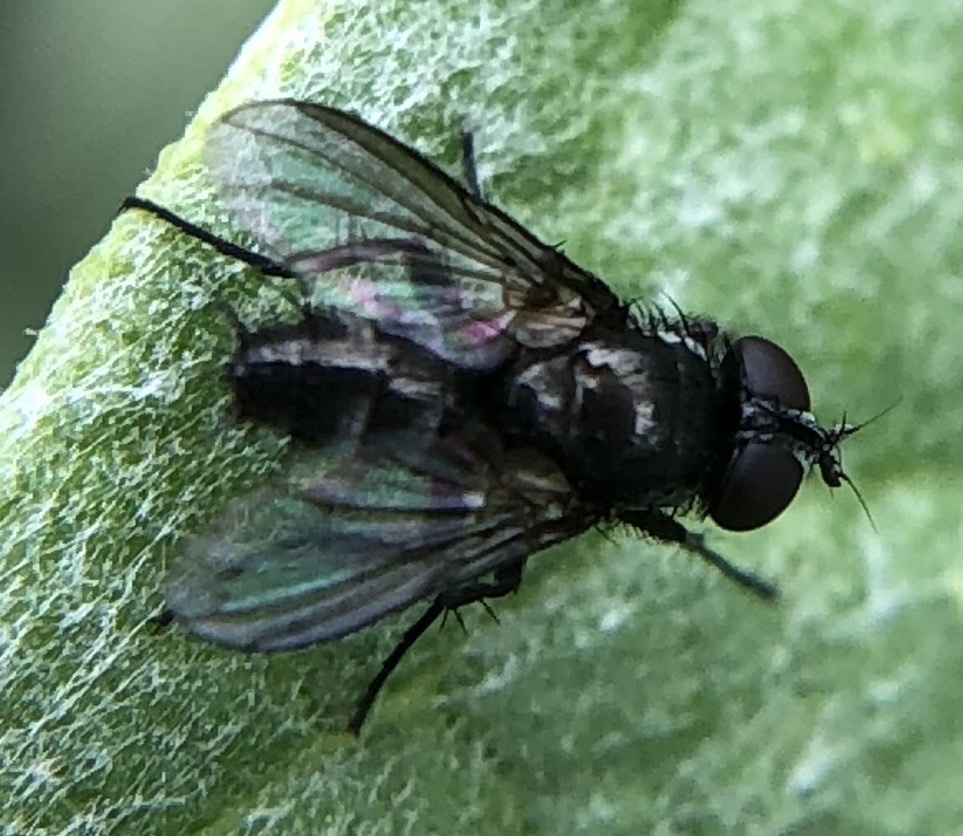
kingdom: Animalia
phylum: Arthropoda
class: Insecta
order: Diptera
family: Calliphoridae
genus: Rhinophora
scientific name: Rhinophora lepida
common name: Pouting woodlouse-fly
